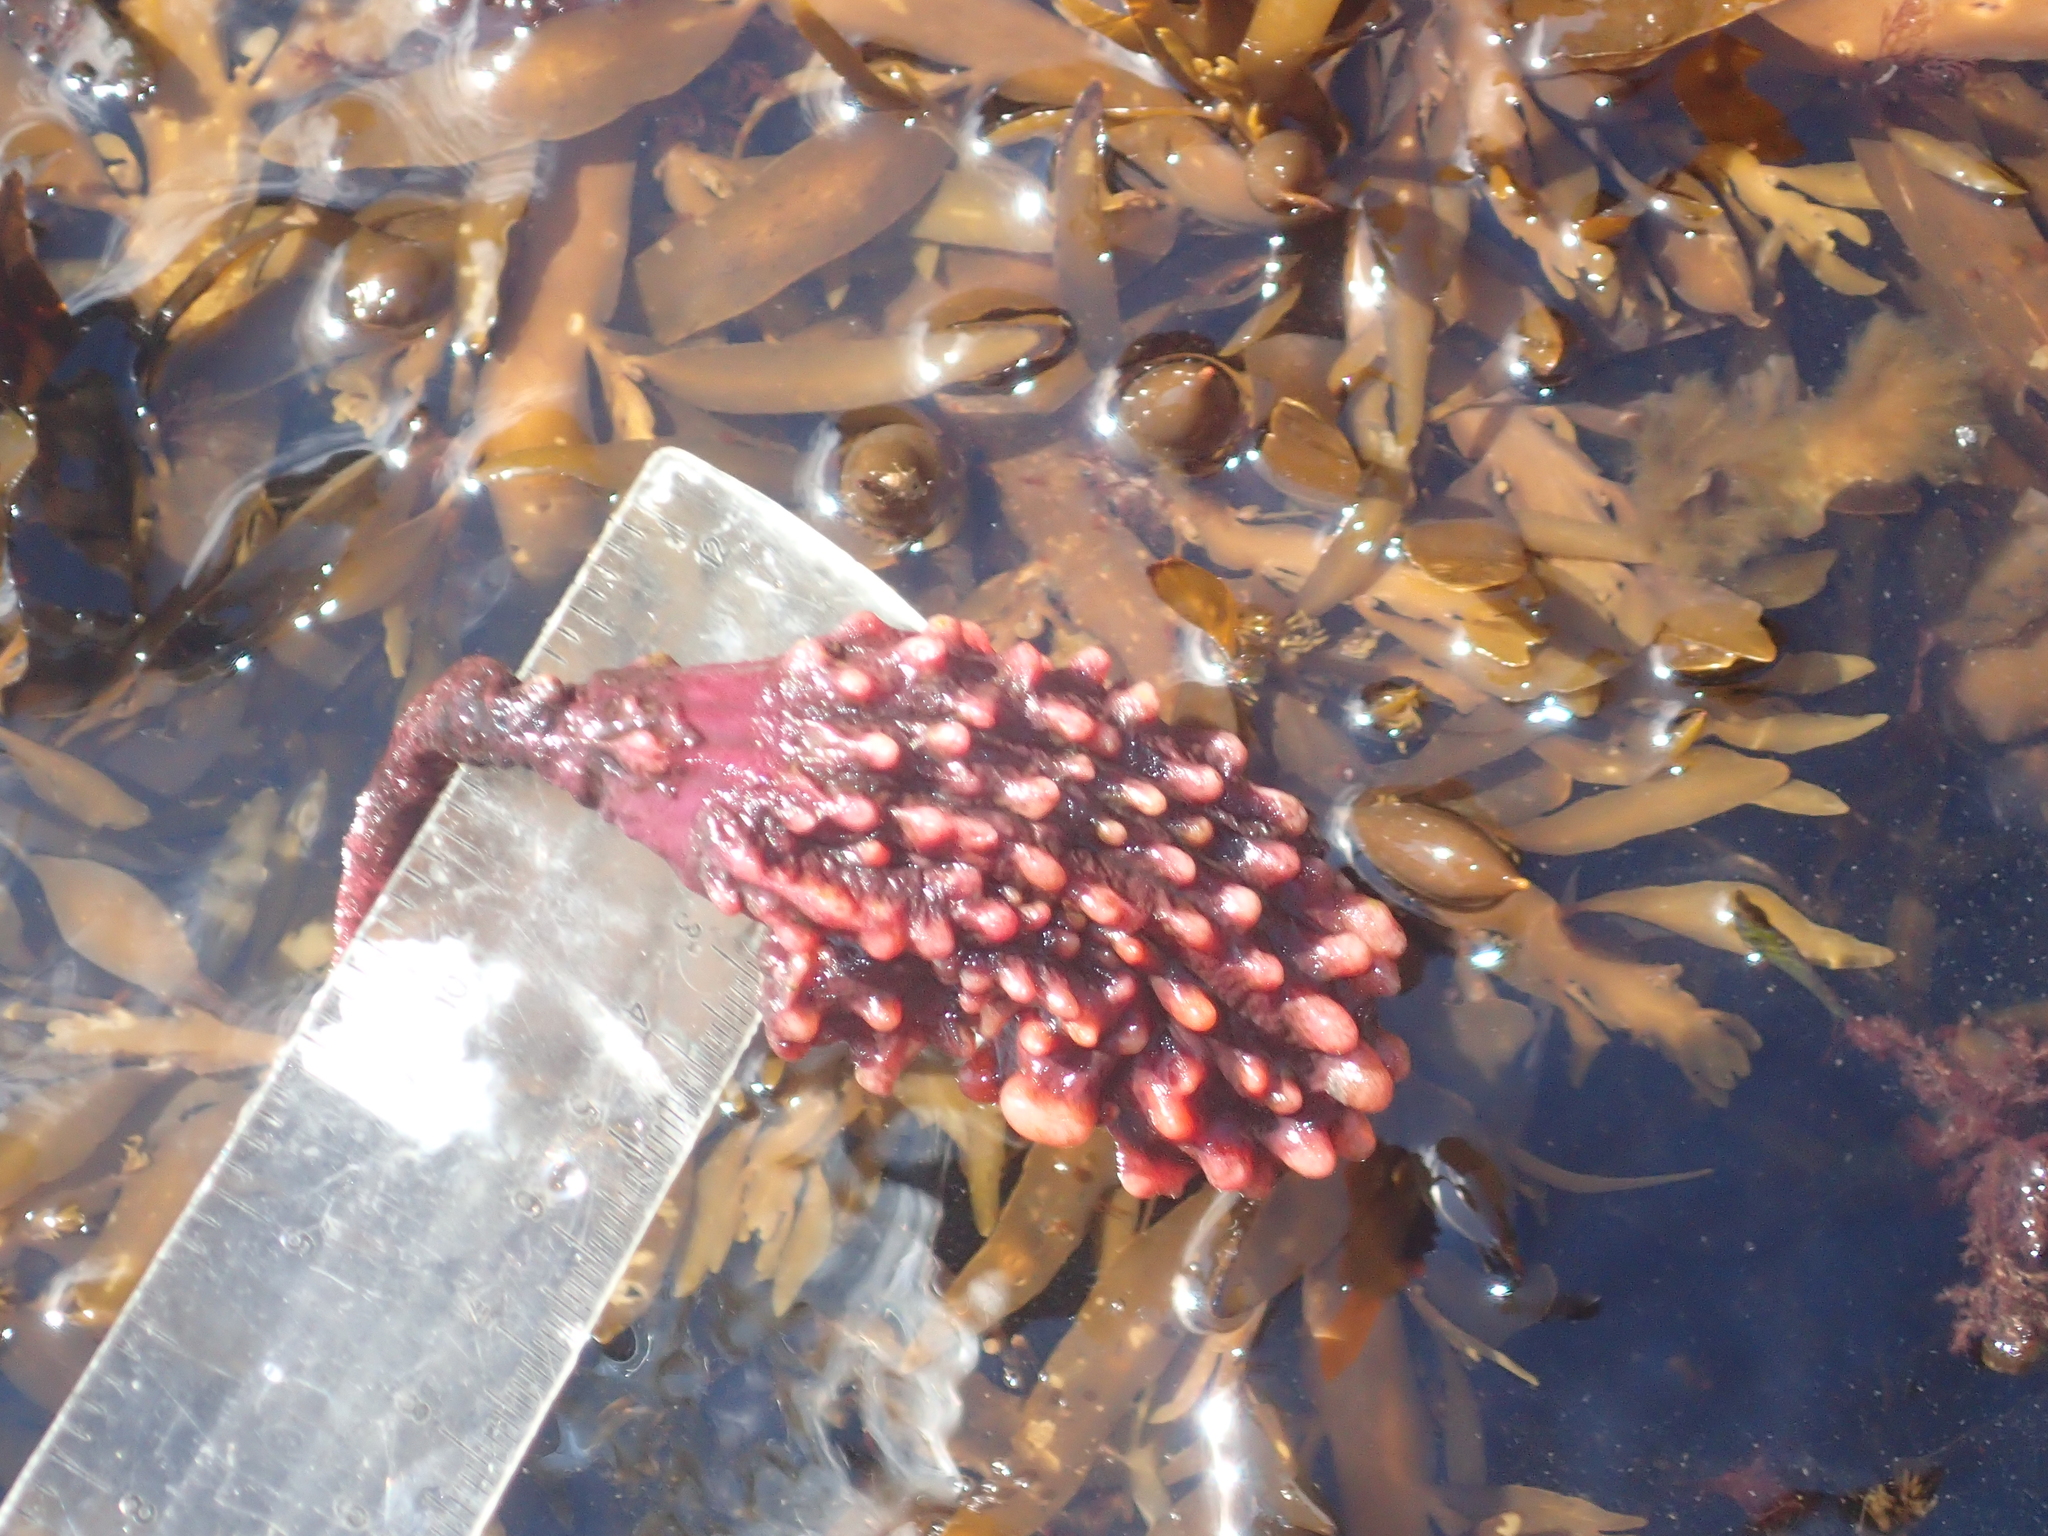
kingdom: Animalia
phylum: Chordata
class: Ascidiacea
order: Stolidobranchia
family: Pyuridae
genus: Pyura
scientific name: Pyura pachydermatina
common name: Sea tulip
